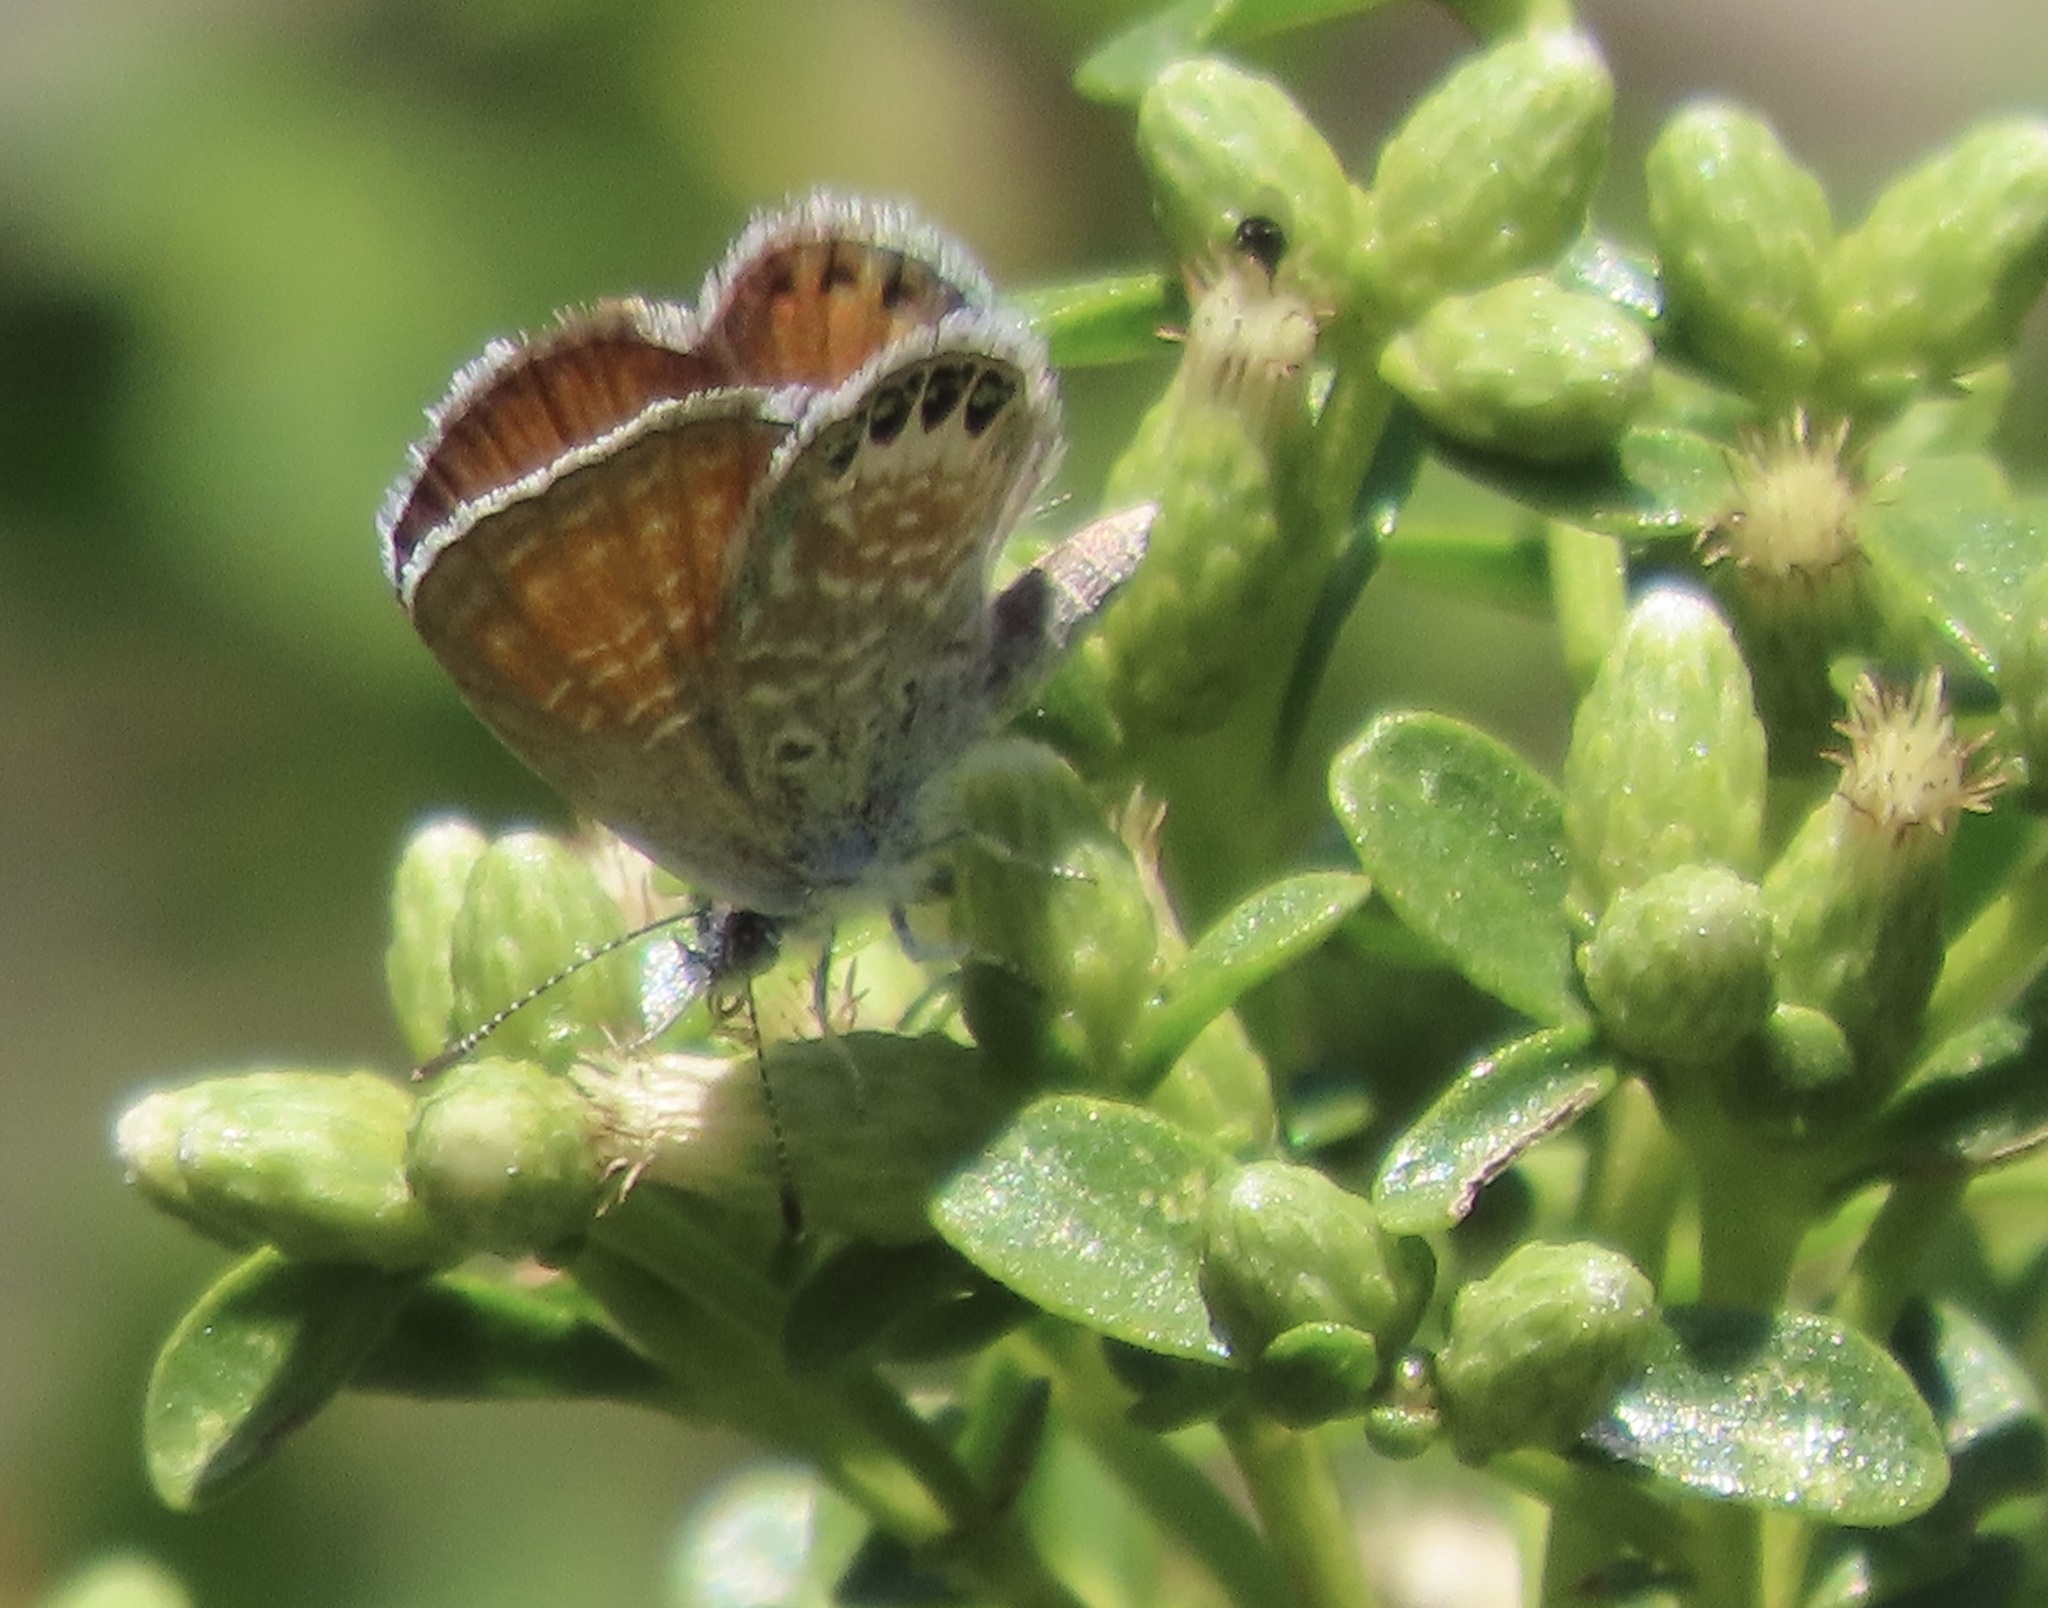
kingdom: Animalia
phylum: Arthropoda
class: Insecta
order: Lepidoptera
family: Lycaenidae
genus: Brephidium
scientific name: Brephidium exilis
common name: Pygmy blue
